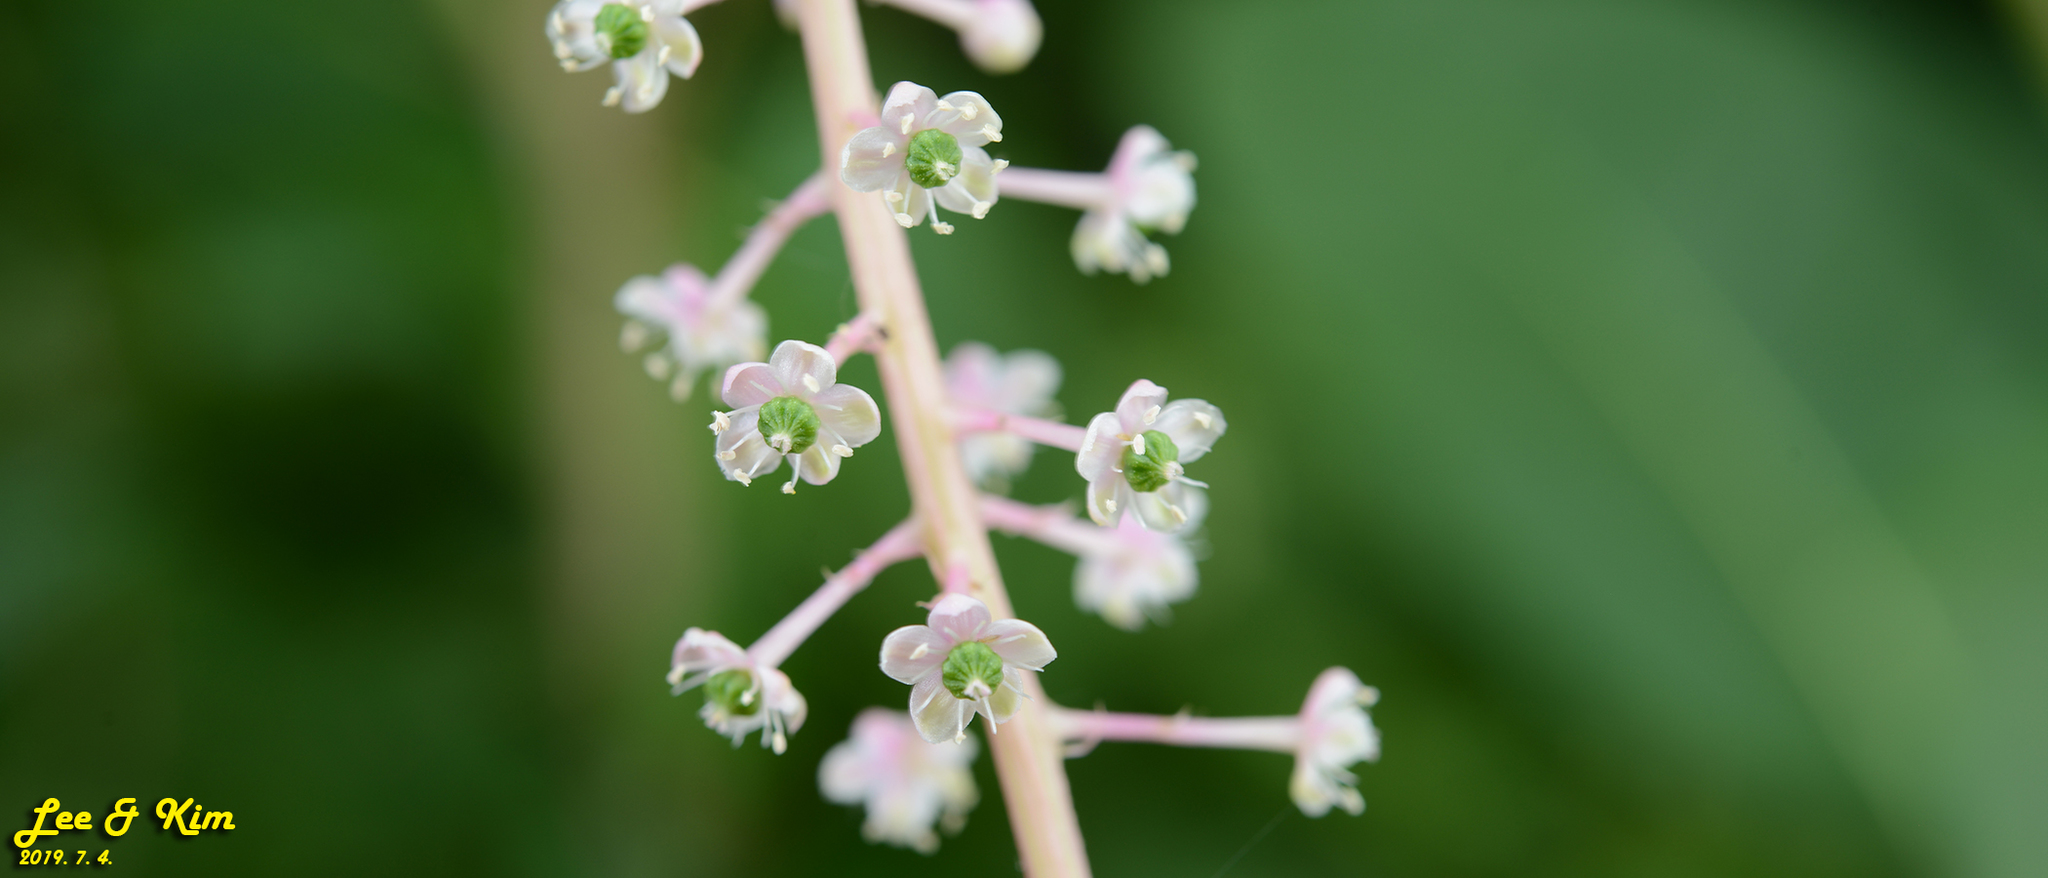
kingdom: Plantae
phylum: Tracheophyta
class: Magnoliopsida
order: Caryophyllales
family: Phytolaccaceae
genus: Phytolacca
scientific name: Phytolacca americana
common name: American pokeweed
